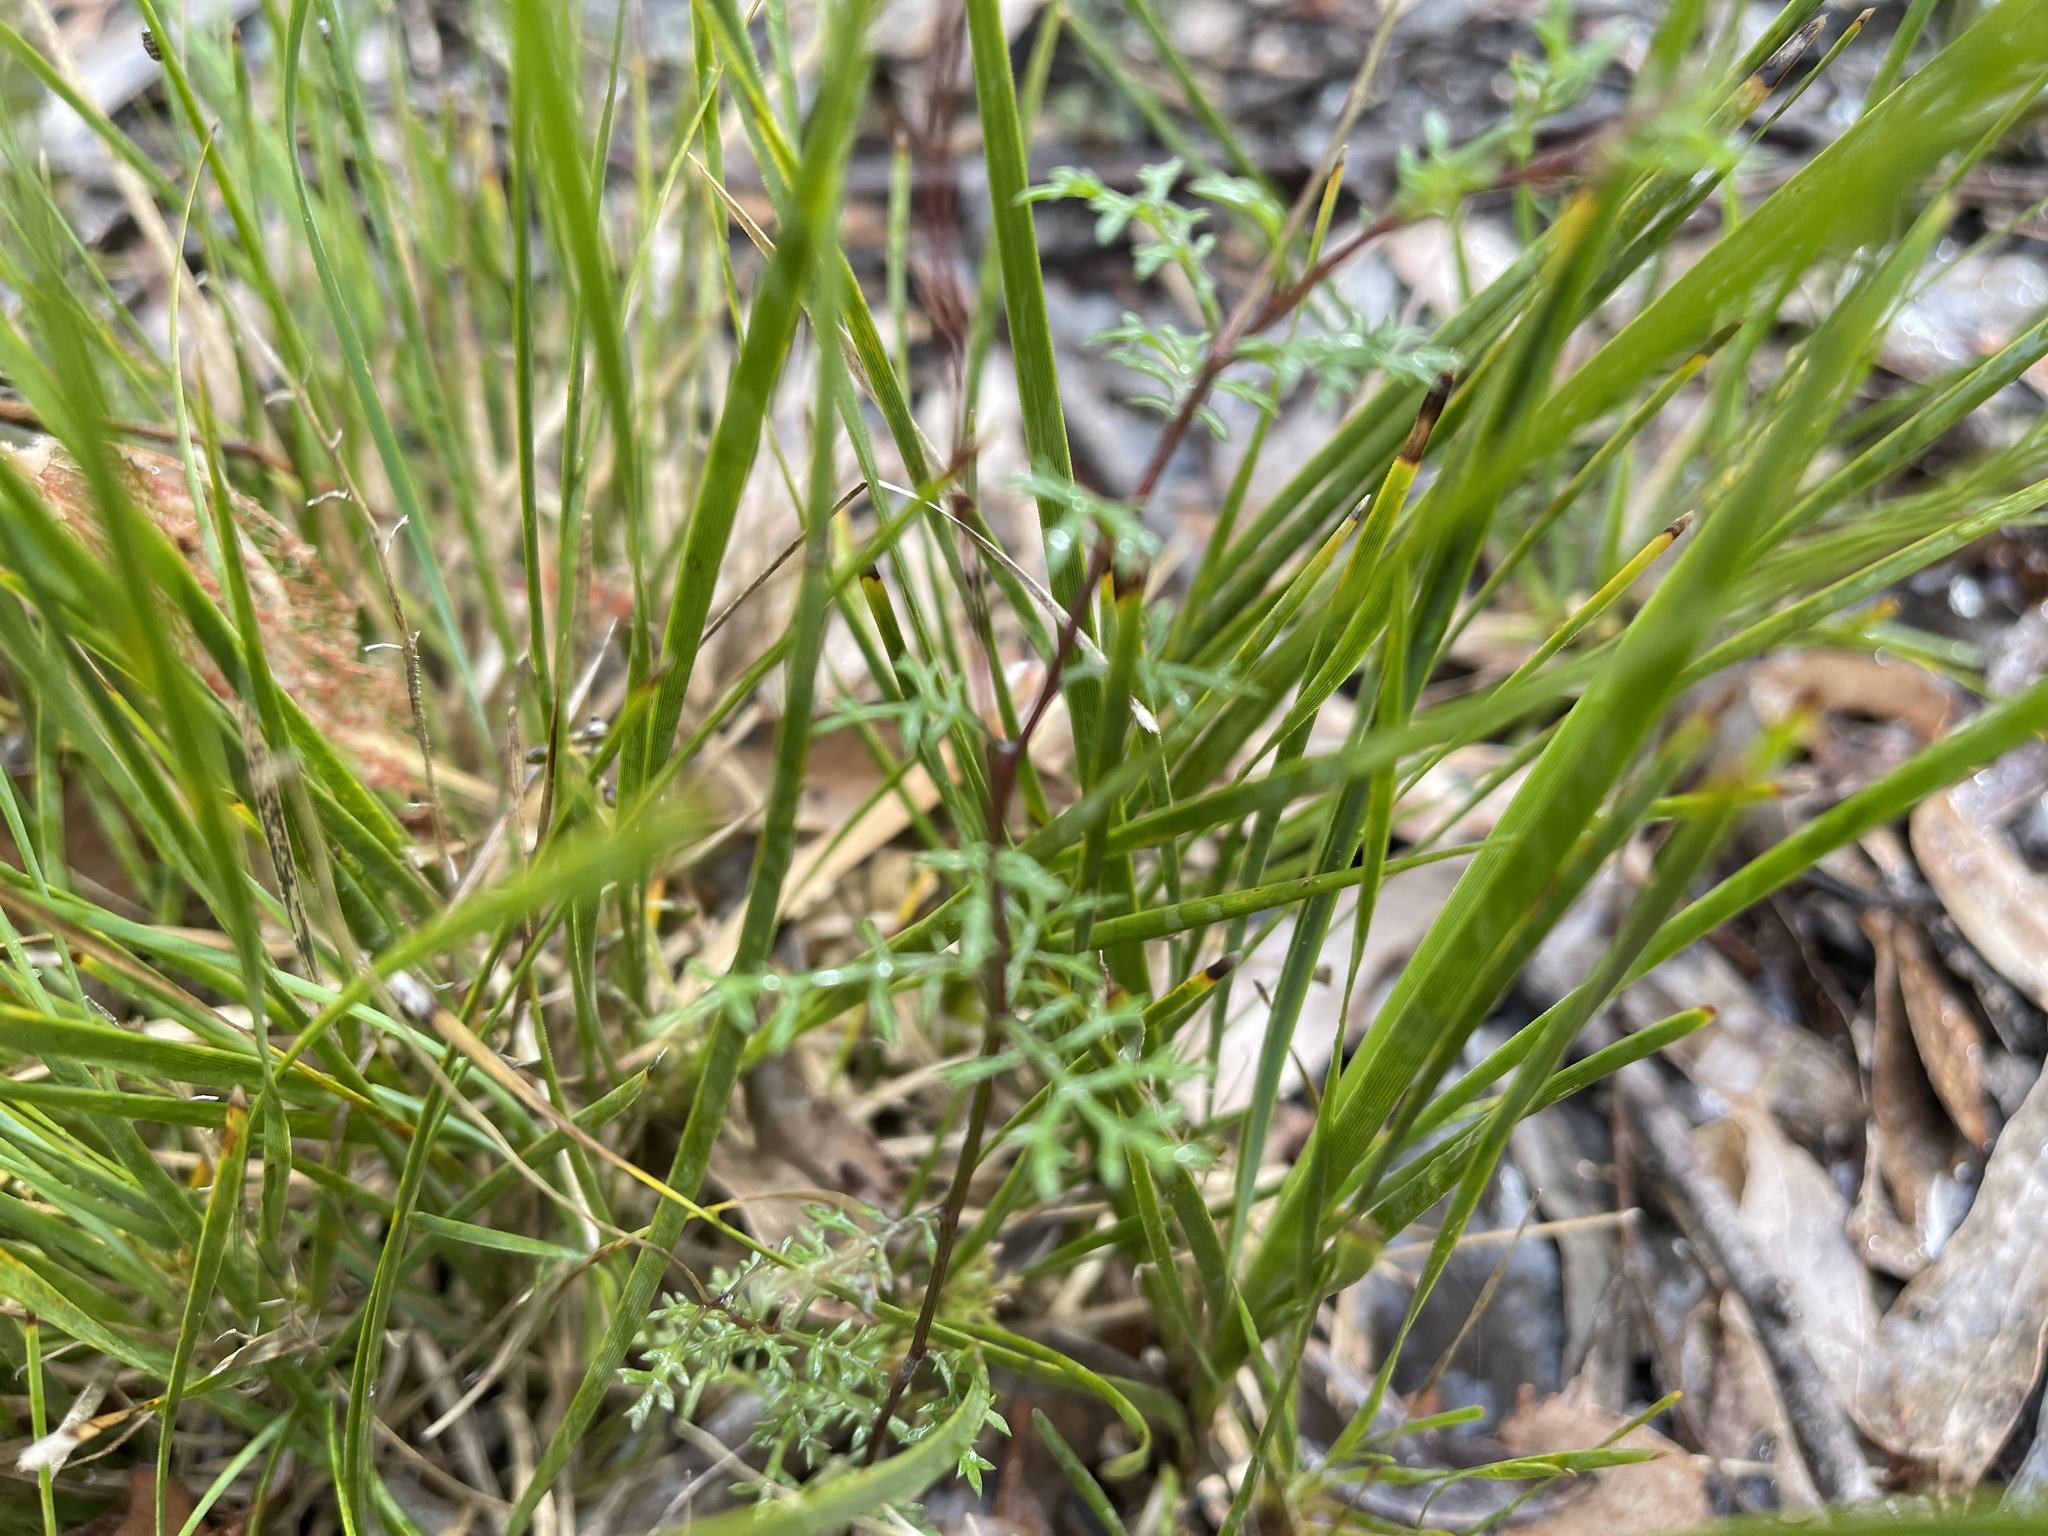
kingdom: Plantae
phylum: Tracheophyta
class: Magnoliopsida
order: Asterales
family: Asteraceae
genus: Brachyscome
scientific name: Brachyscome multifida
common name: Cut-leaf daisy
